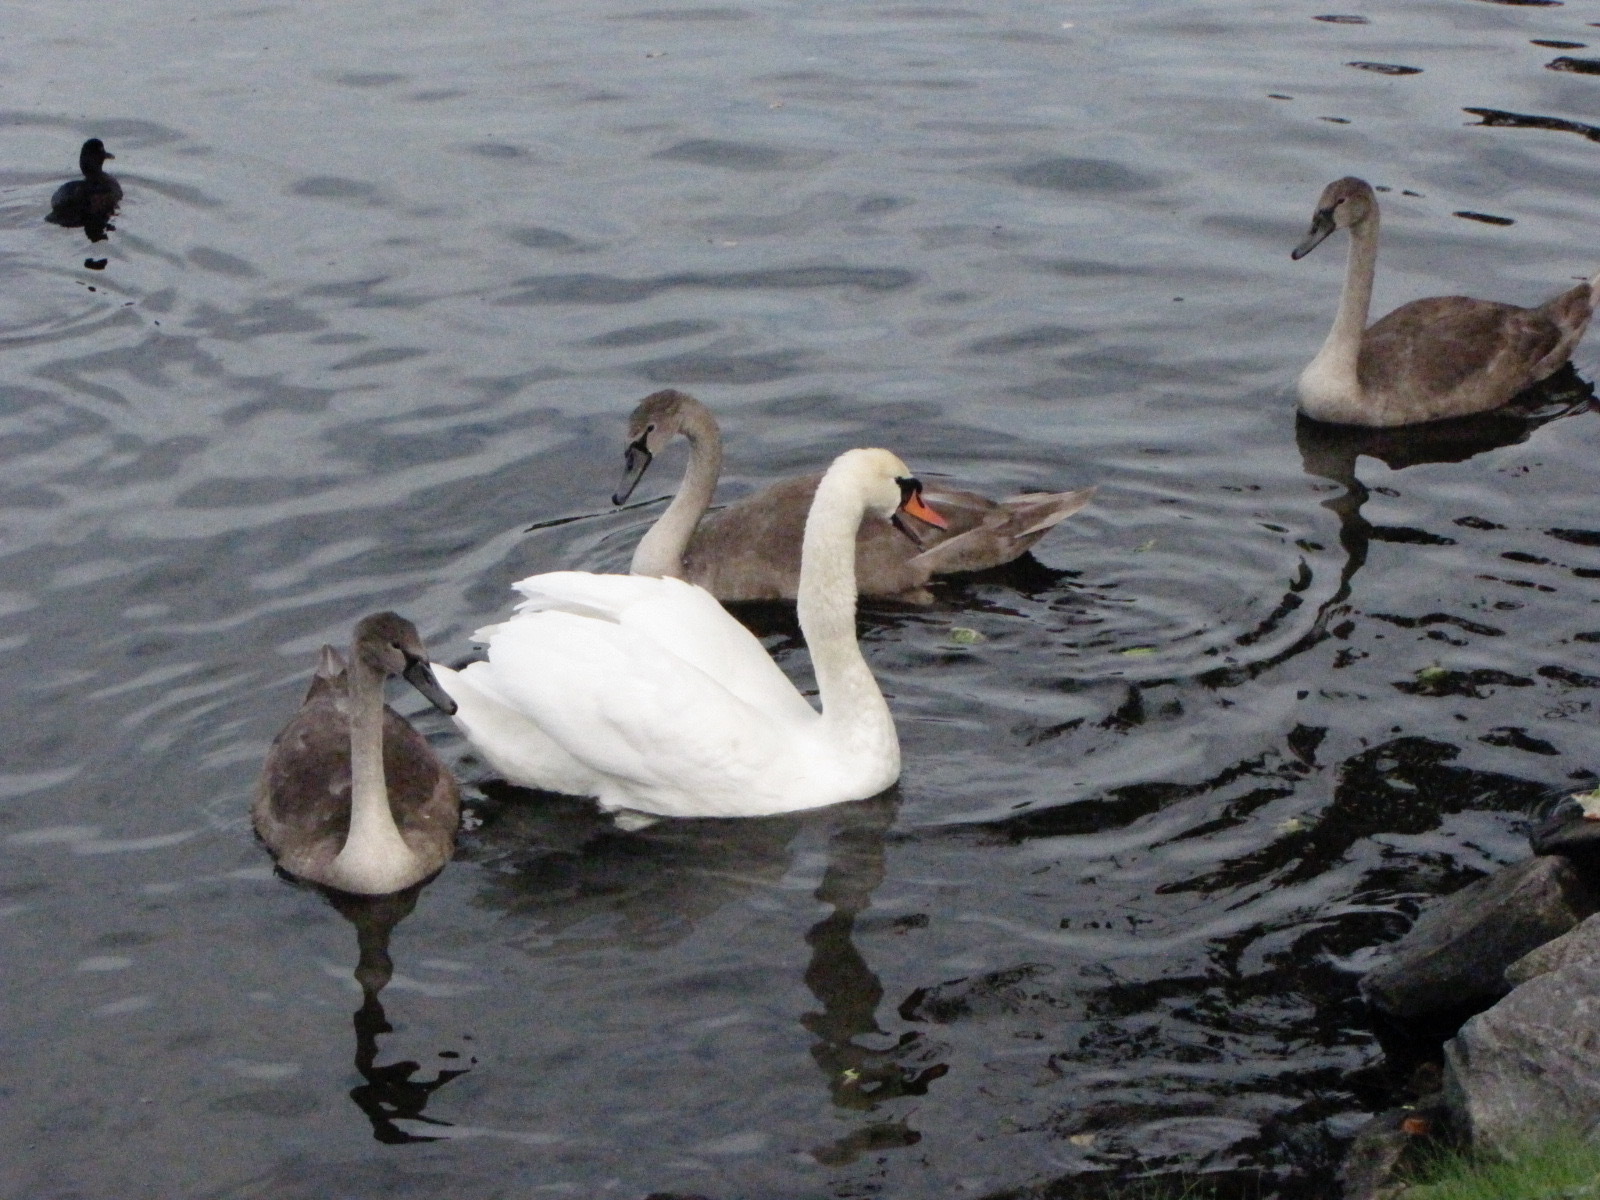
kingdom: Animalia
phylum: Chordata
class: Aves
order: Anseriformes
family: Anatidae
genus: Cygnus
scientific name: Cygnus olor
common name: Mute swan
